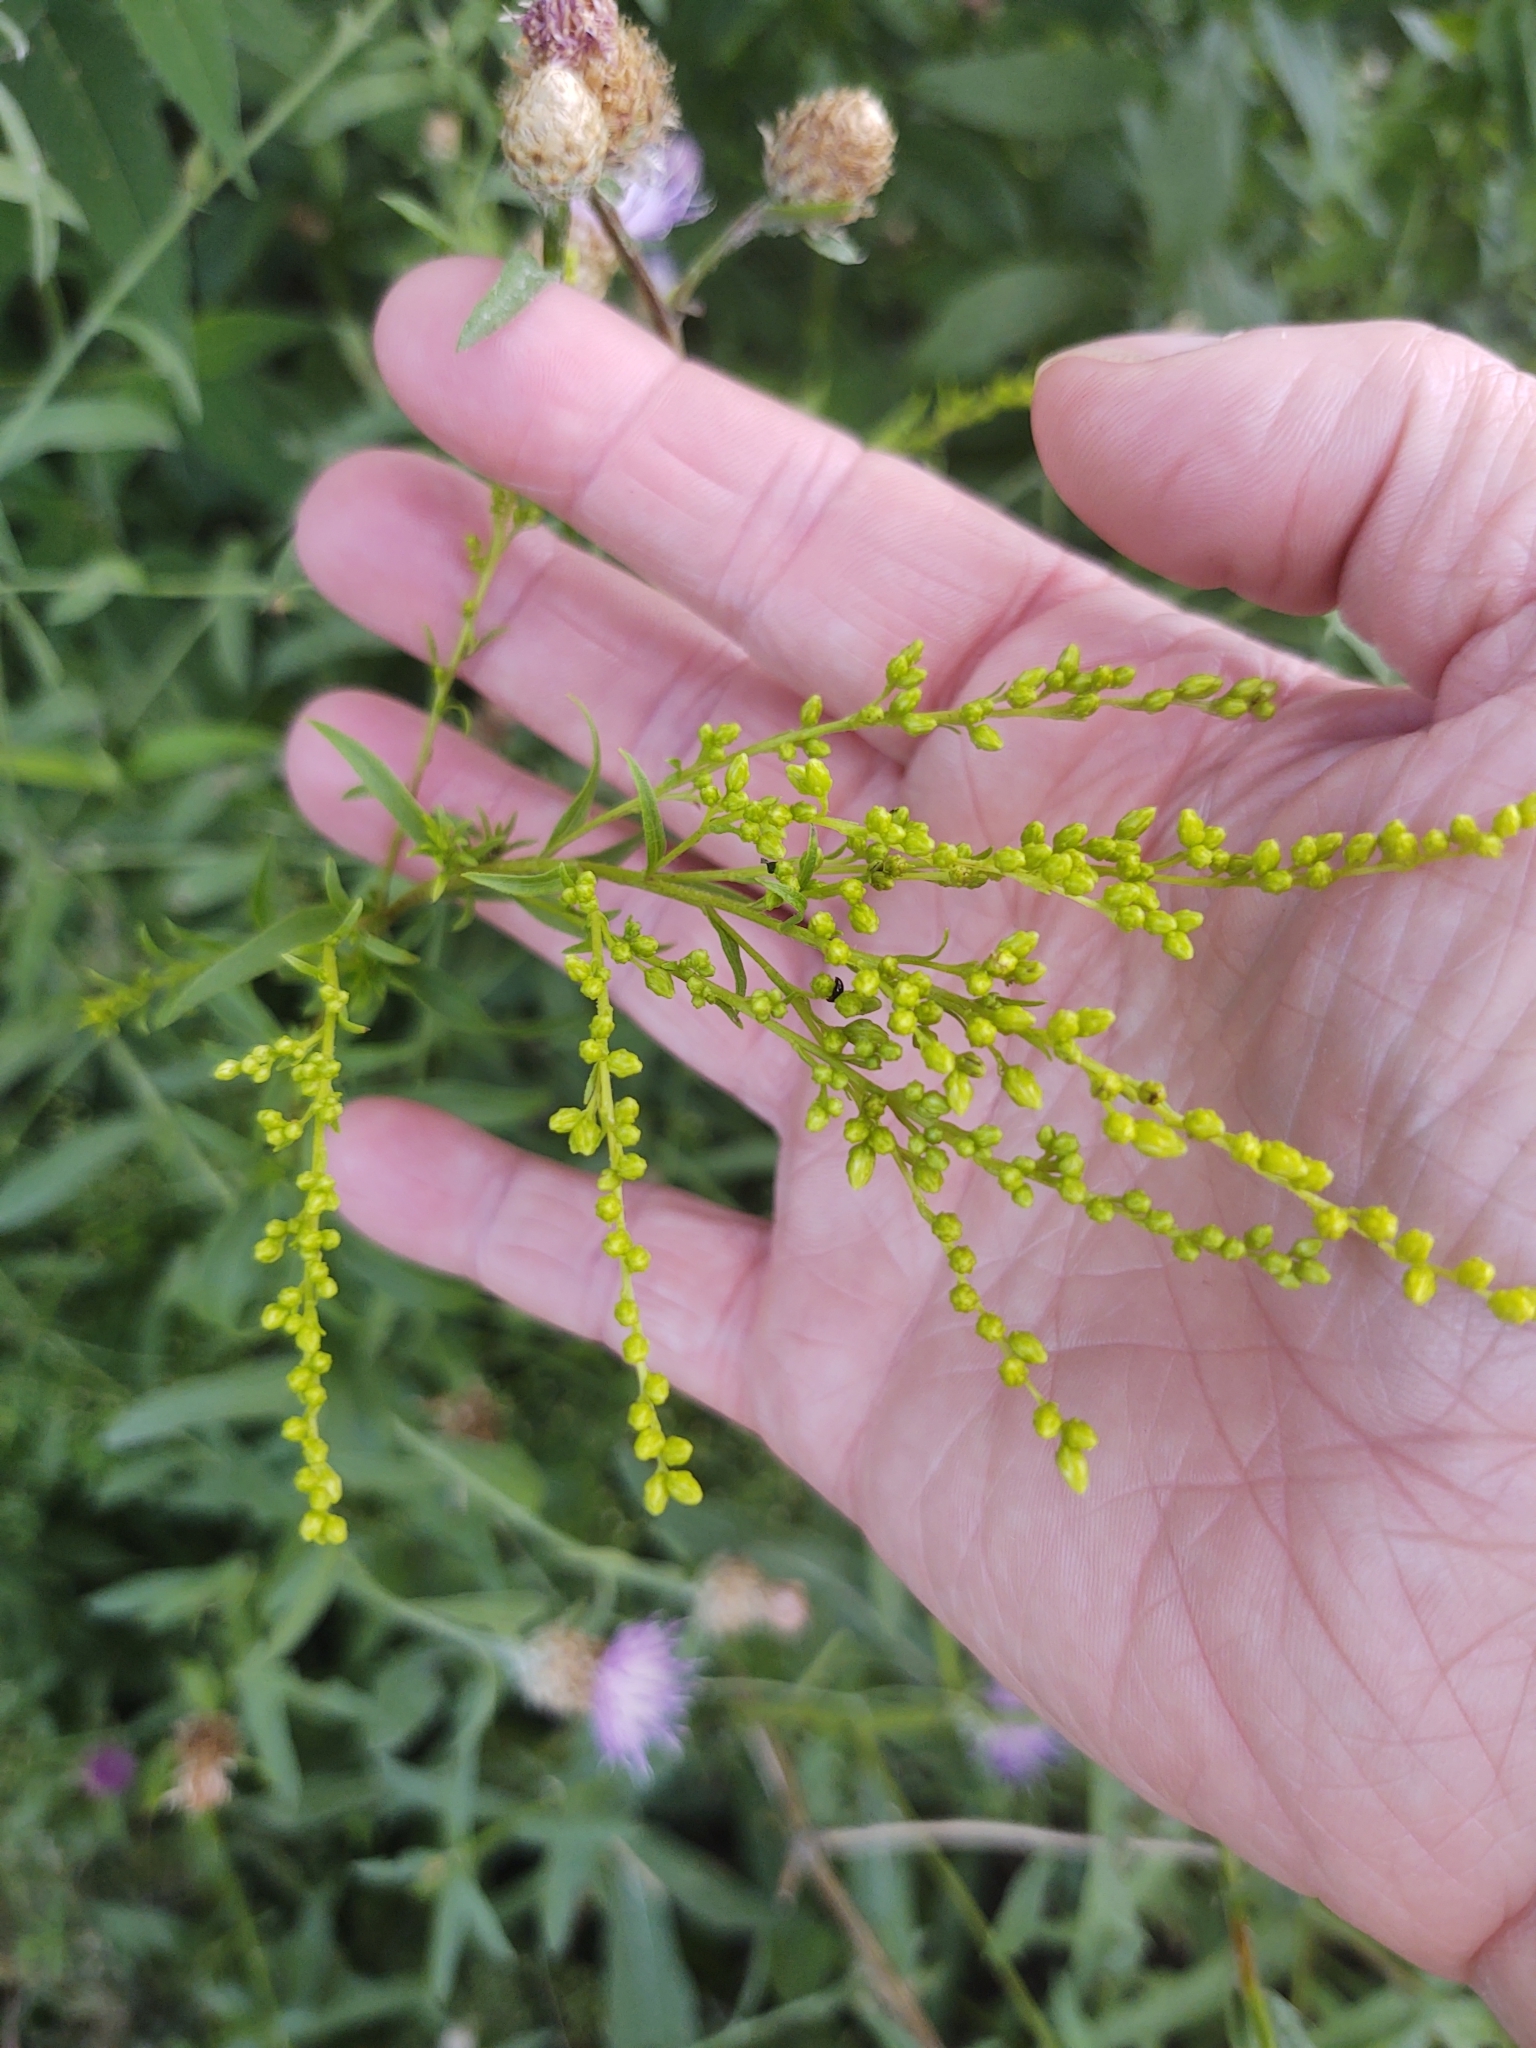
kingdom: Plantae
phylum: Tracheophyta
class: Magnoliopsida
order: Asterales
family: Asteraceae
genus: Solidago
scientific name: Solidago juncea
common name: Early goldenrod
